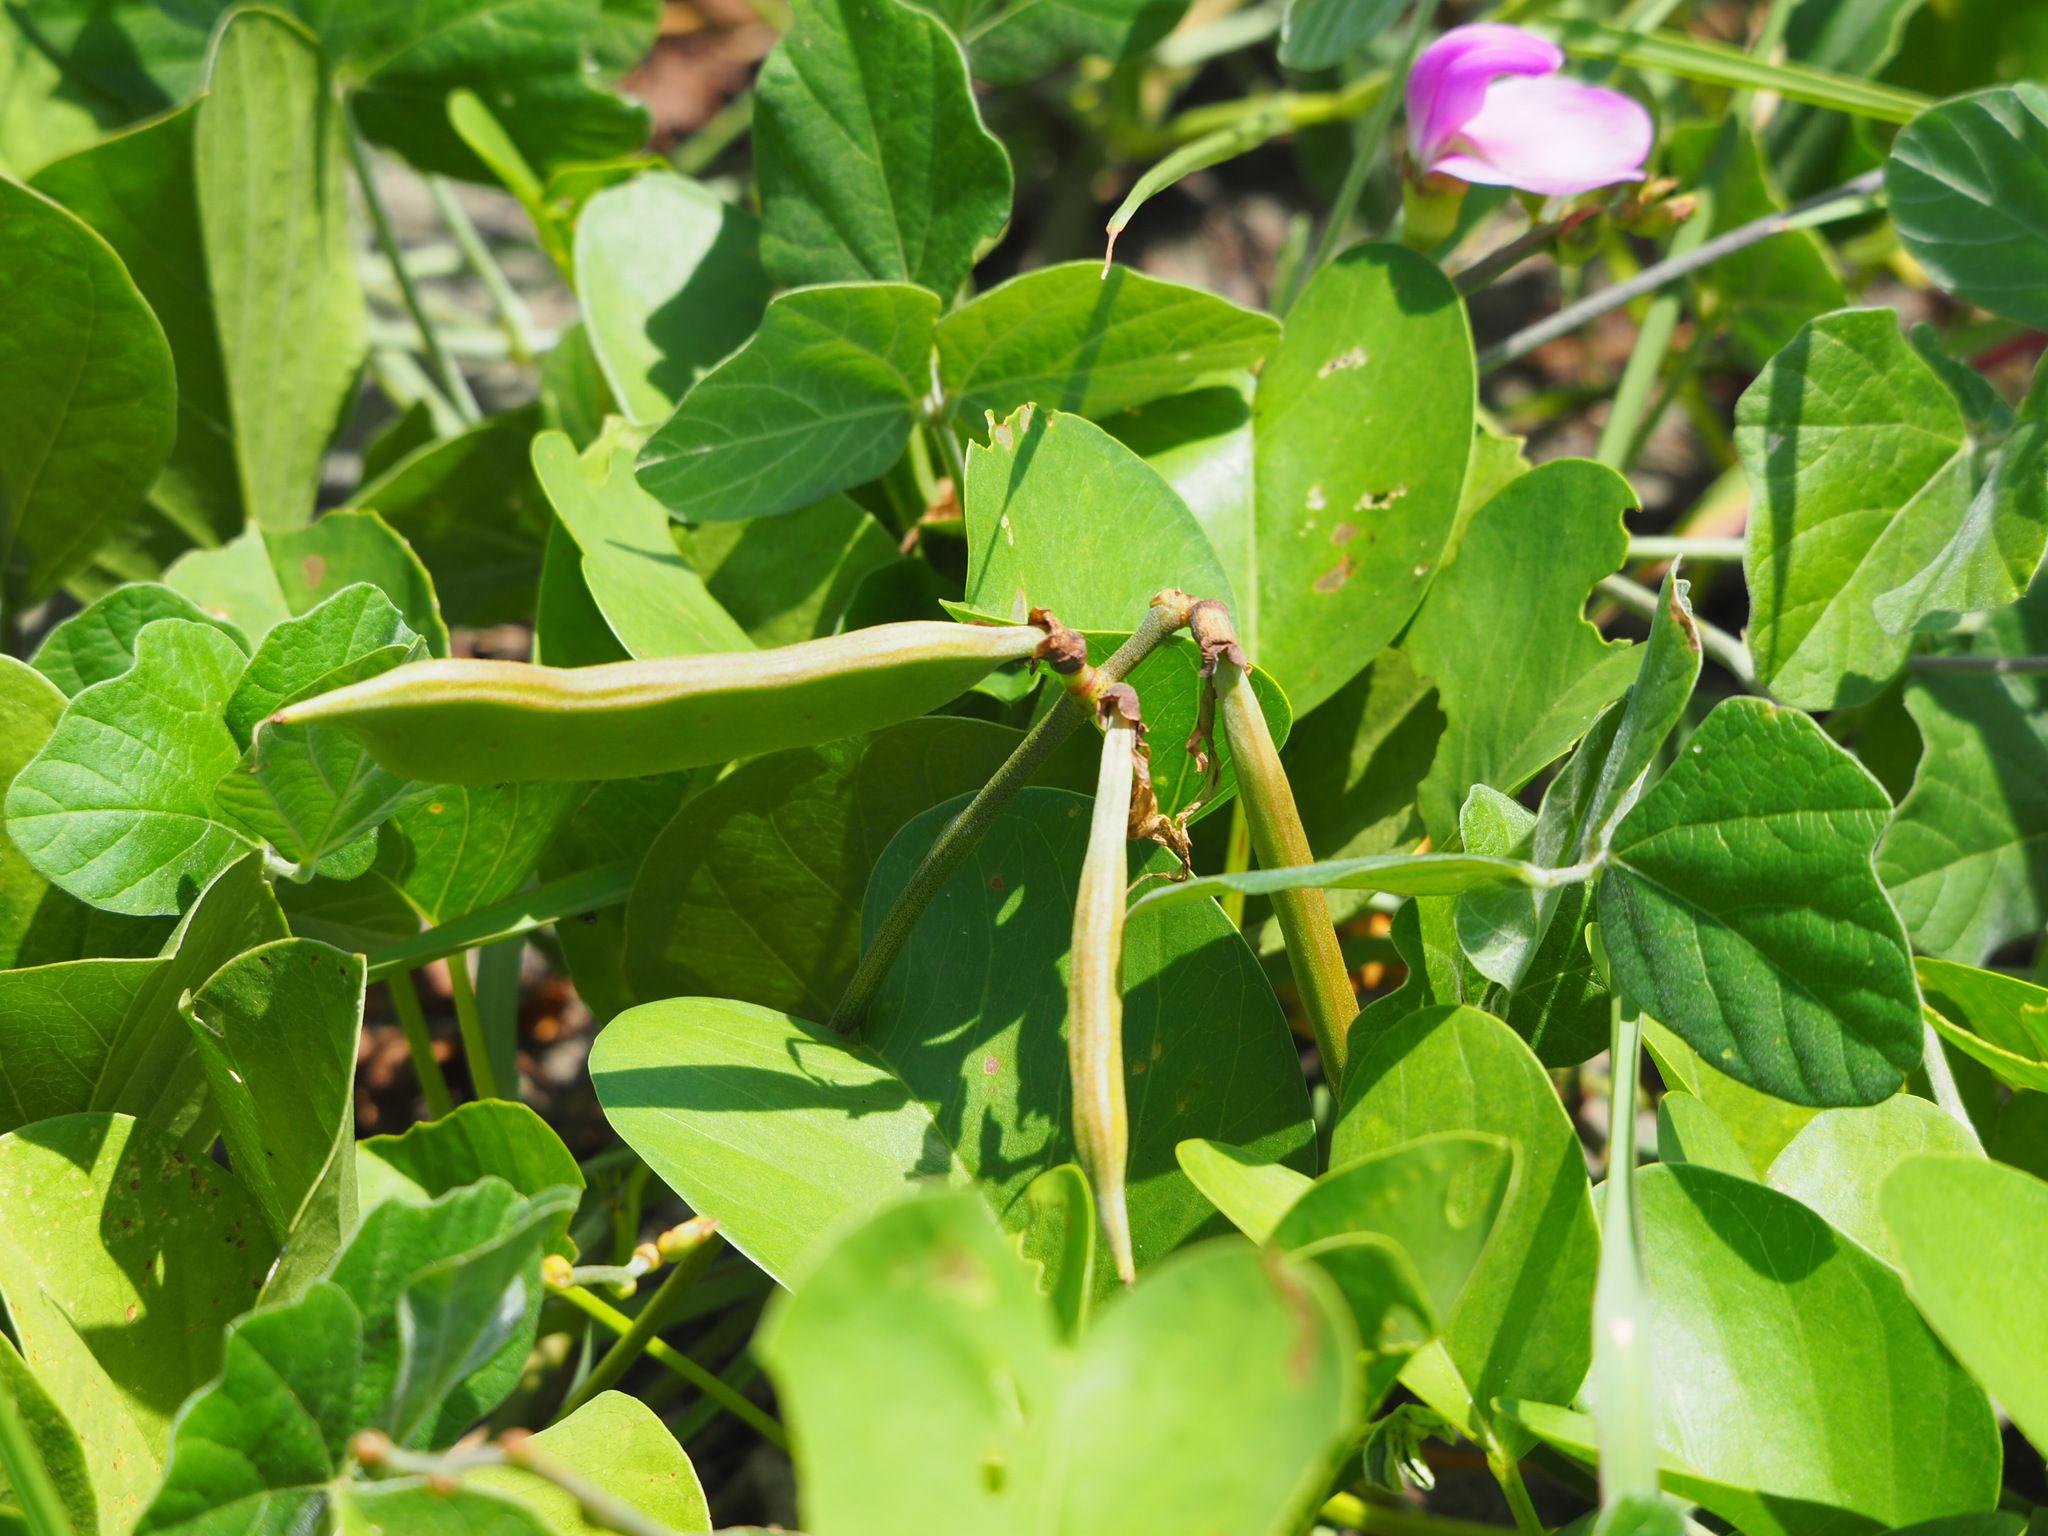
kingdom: Plantae
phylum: Tracheophyta
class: Magnoliopsida
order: Fabales
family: Fabaceae
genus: Canavalia
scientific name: Canavalia lineata
